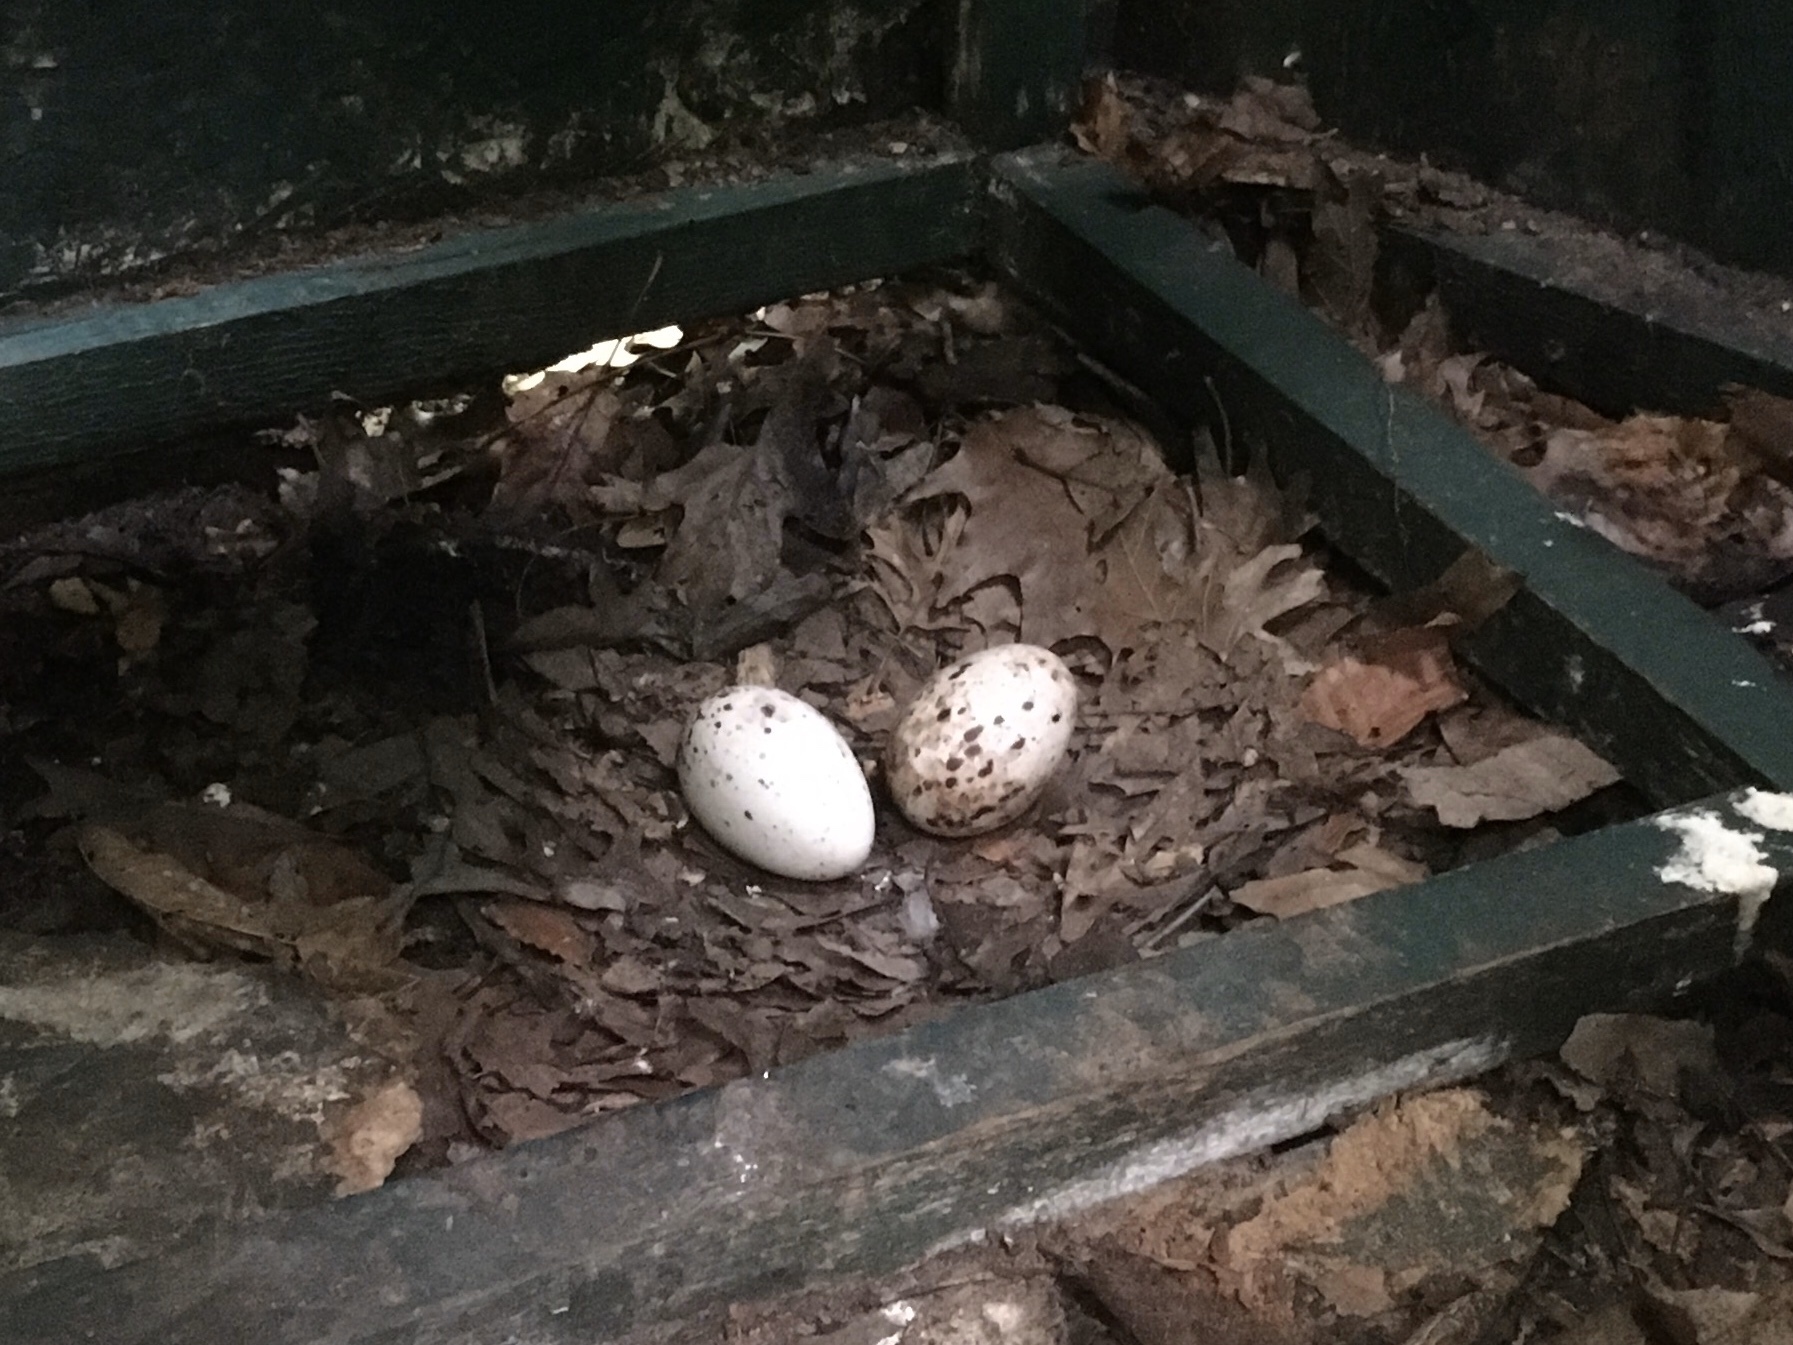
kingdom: Animalia
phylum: Chordata
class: Aves
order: Accipitriformes
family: Cathartidae
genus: Cathartes
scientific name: Cathartes aura
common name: Turkey vulture
